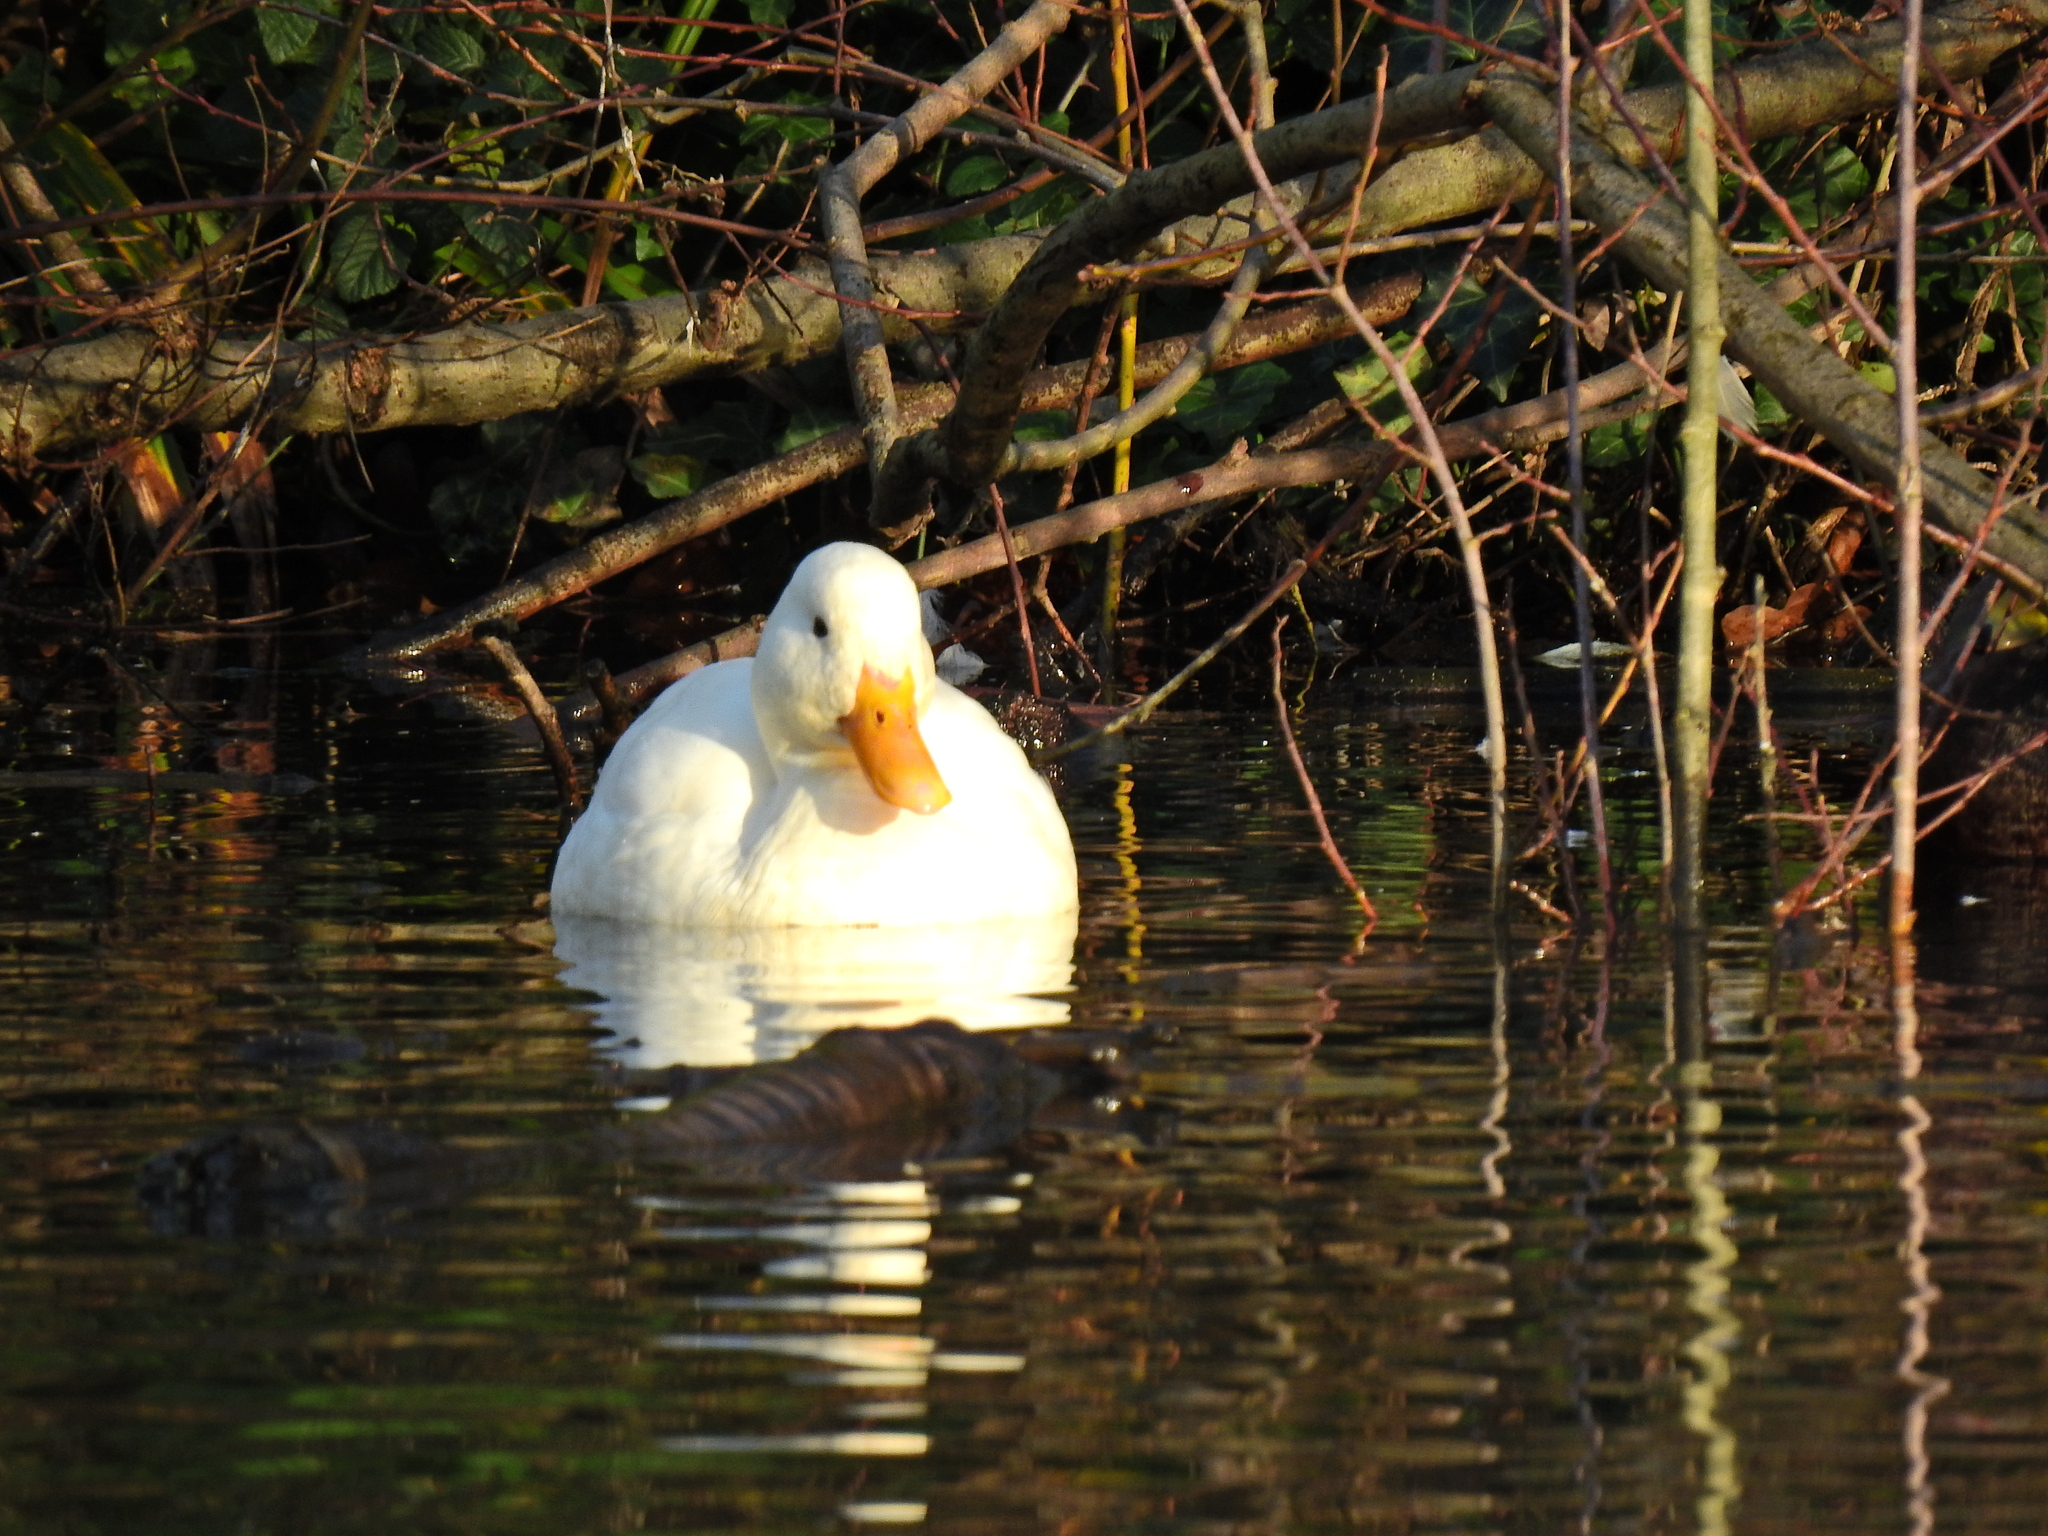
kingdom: Animalia
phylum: Chordata
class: Aves
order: Anseriformes
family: Anatidae
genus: Anas
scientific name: Anas platyrhynchos
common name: Mallard
